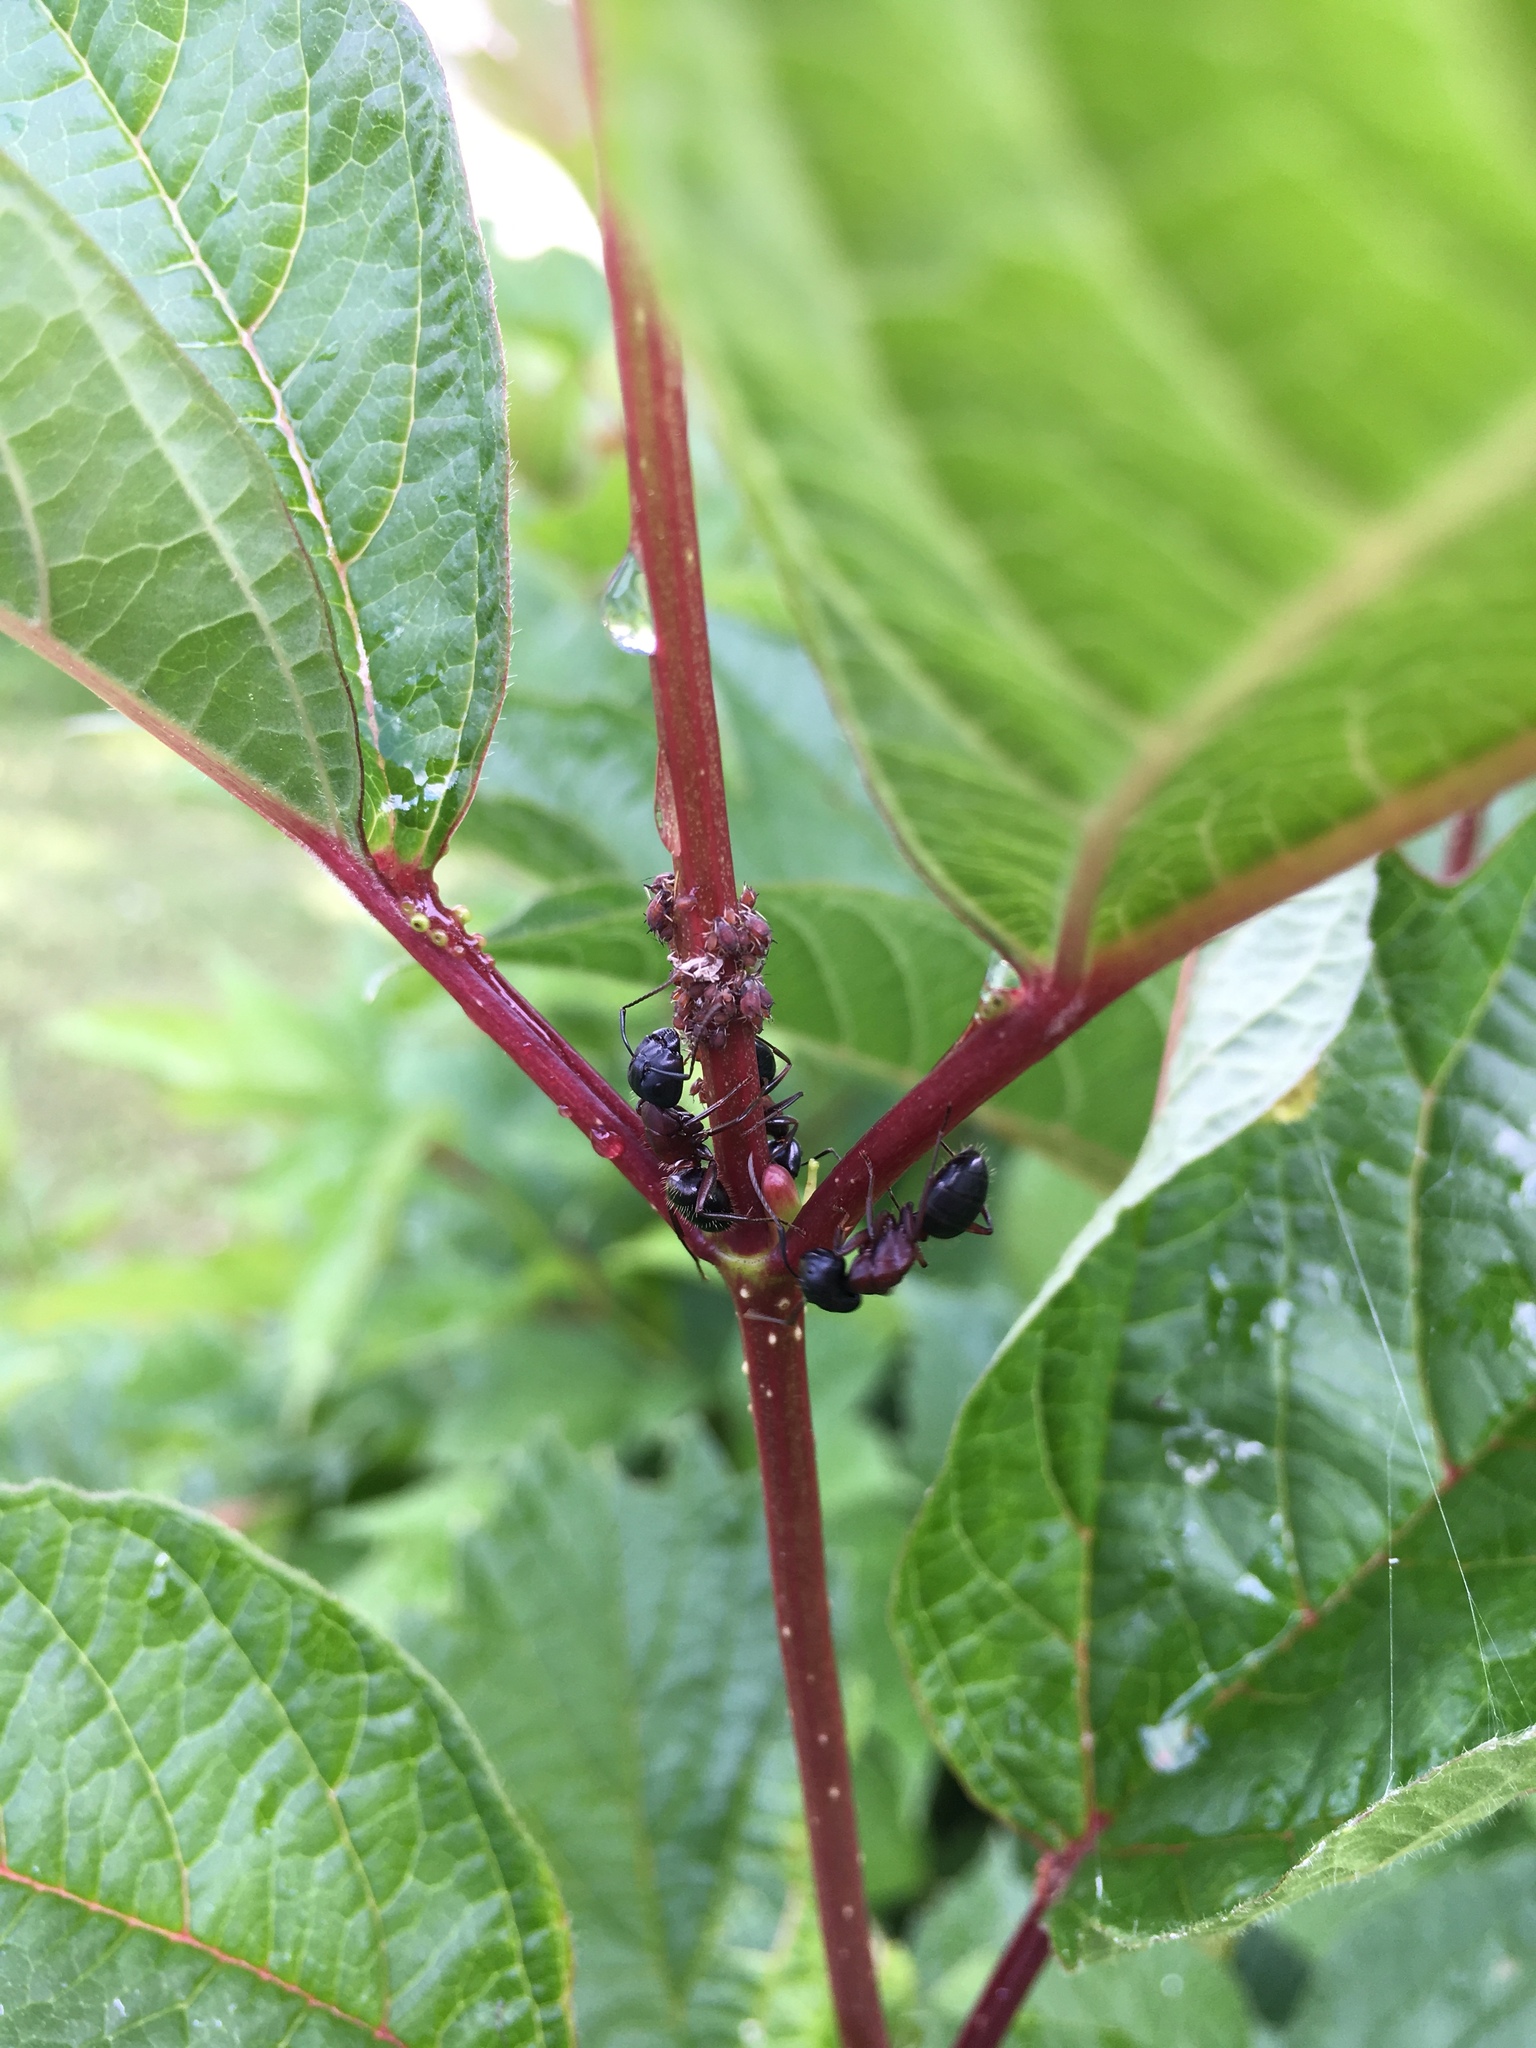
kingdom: Animalia
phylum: Arthropoda
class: Insecta
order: Hymenoptera
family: Formicidae
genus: Camponotus
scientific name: Camponotus novaeboracensis
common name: New york carpenter ant
